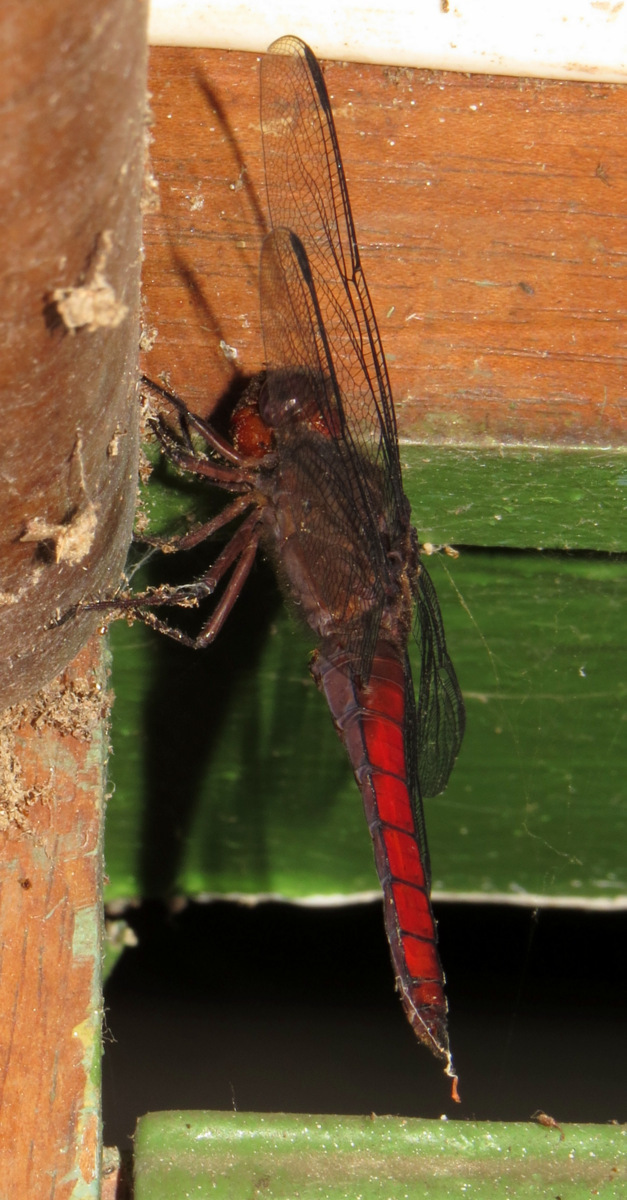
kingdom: Animalia
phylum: Arthropoda
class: Insecta
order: Odonata
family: Libellulidae
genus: Libellula
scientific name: Libellula herculea
